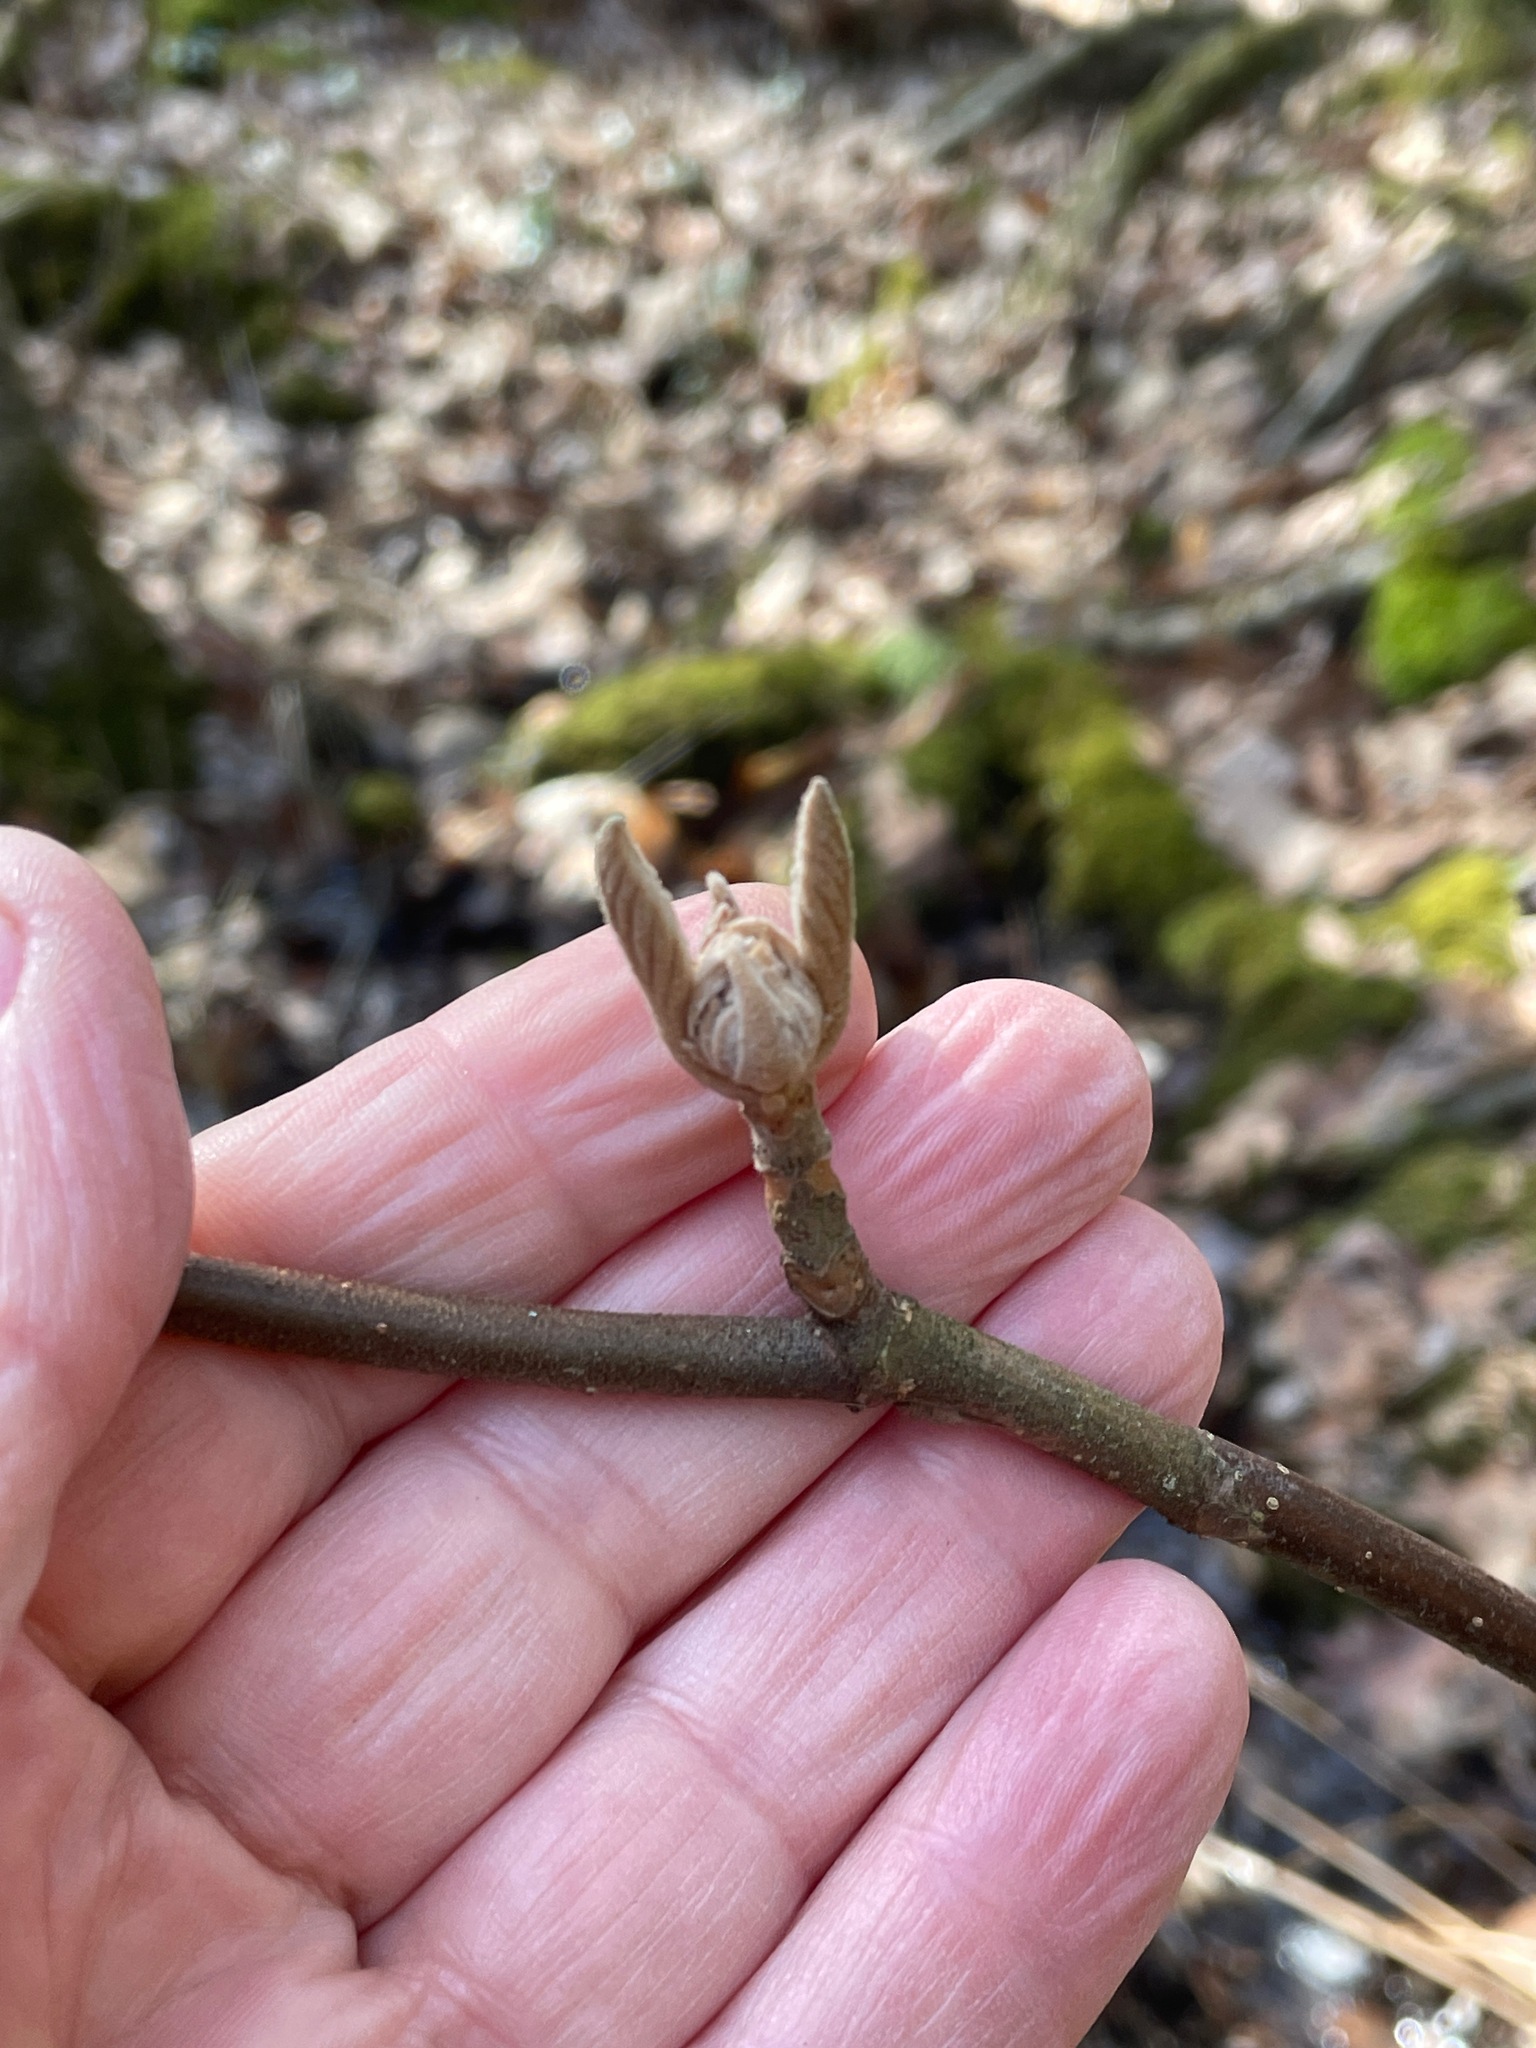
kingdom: Plantae
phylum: Tracheophyta
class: Magnoliopsida
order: Dipsacales
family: Viburnaceae
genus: Viburnum
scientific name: Viburnum lantanoides
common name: Hobblebush
